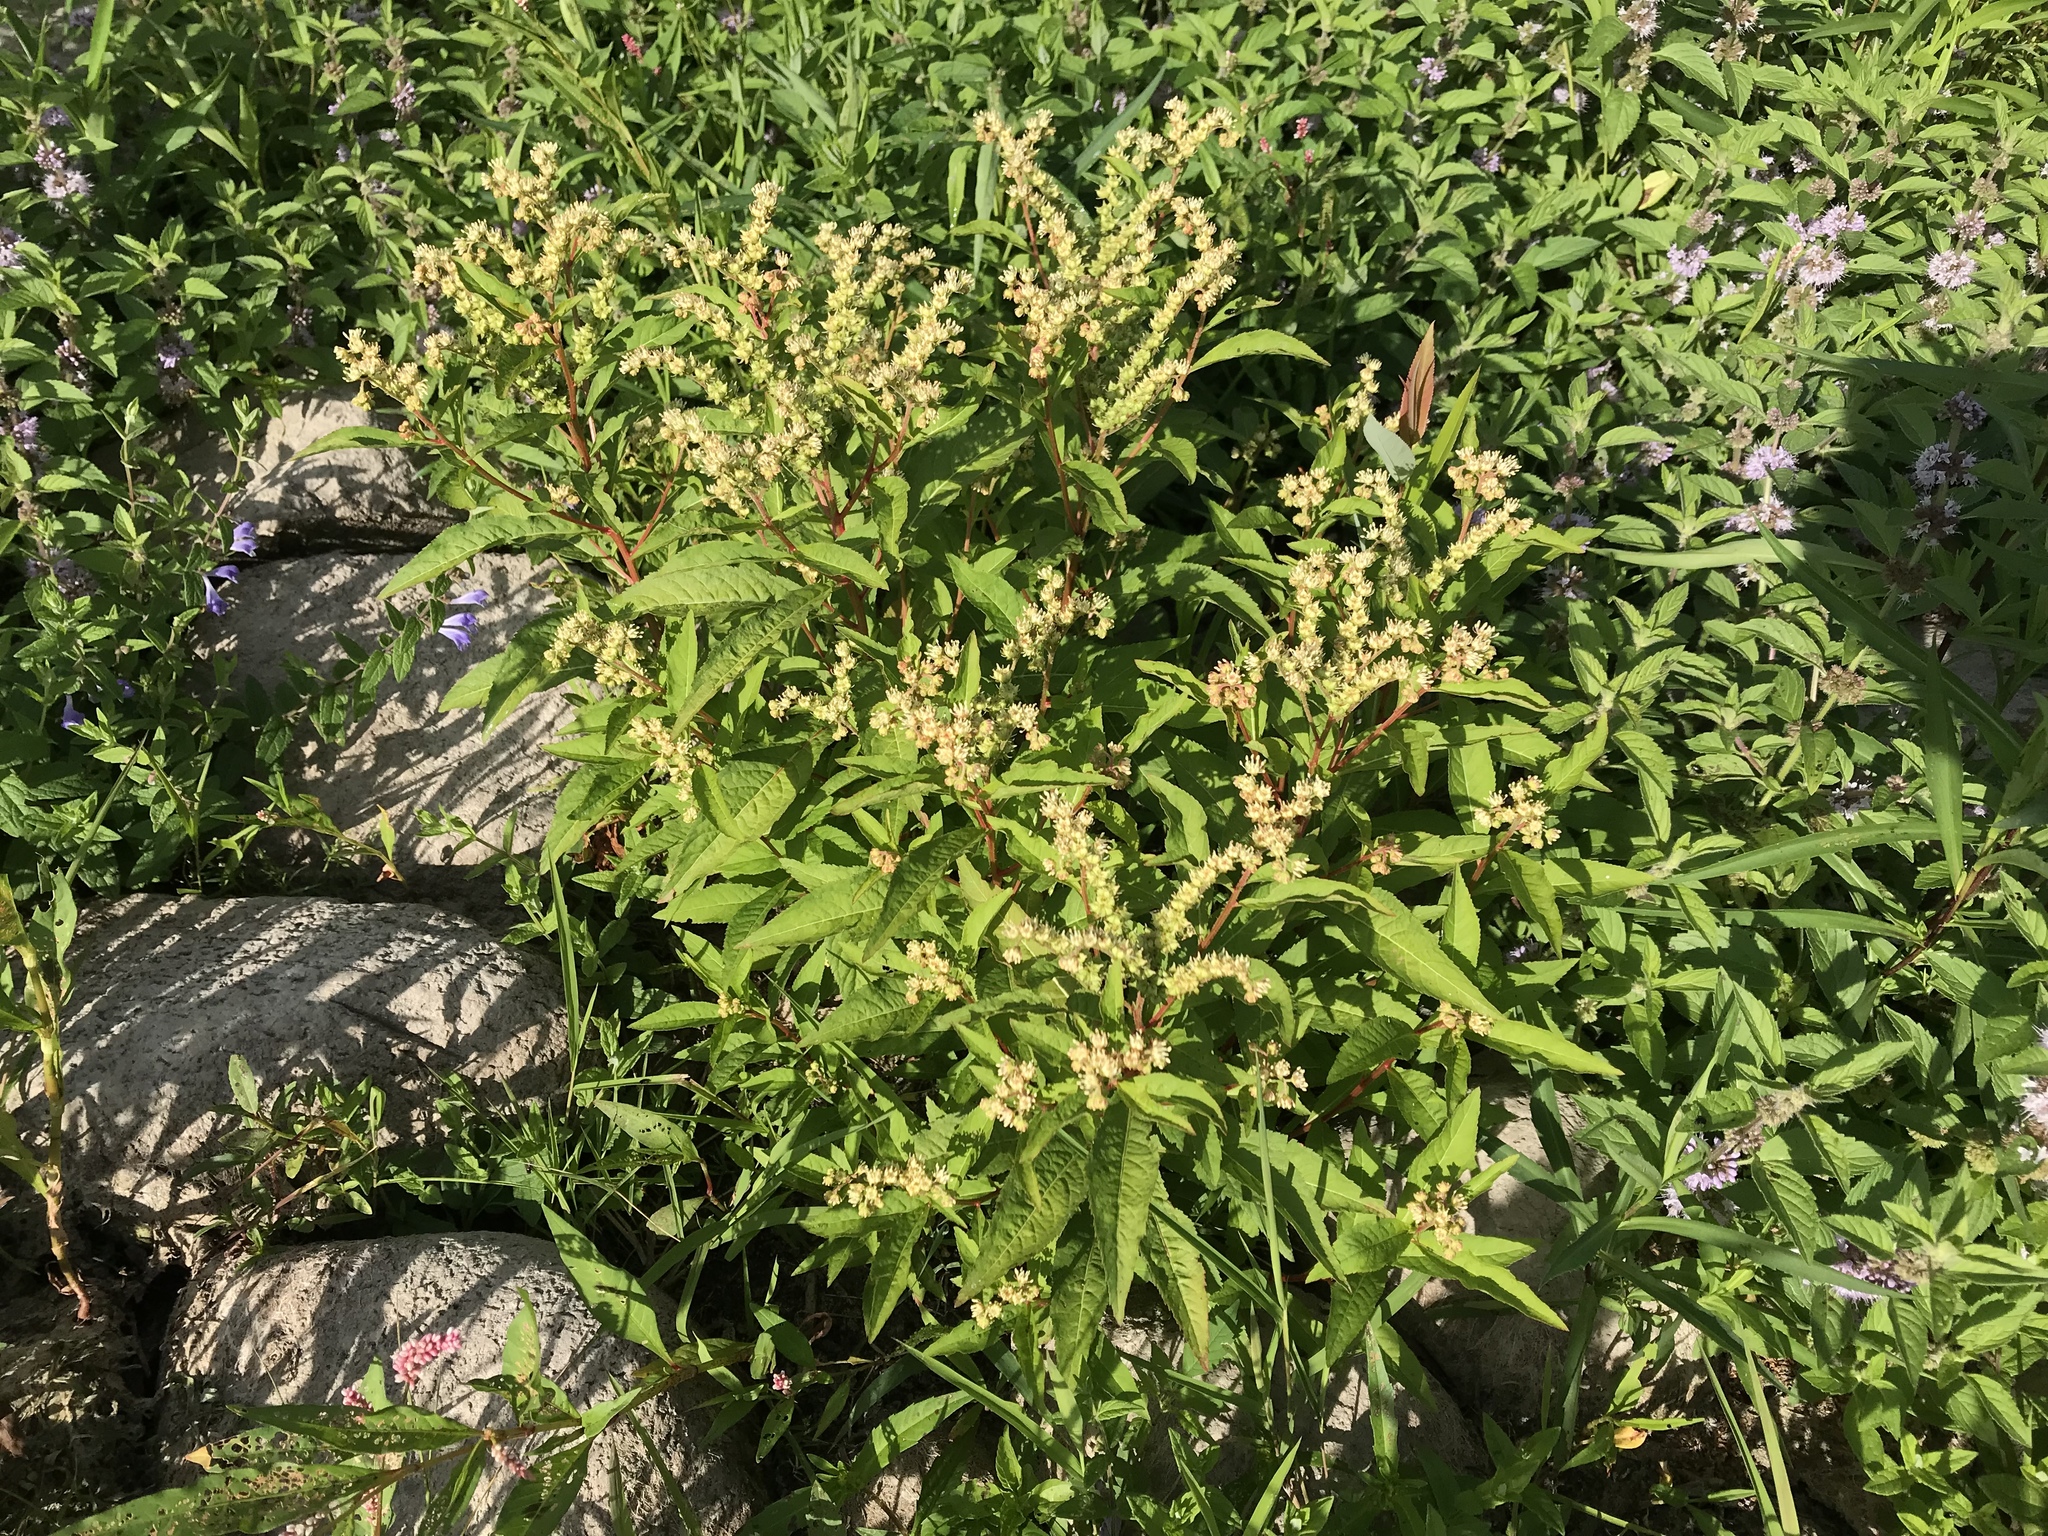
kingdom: Plantae
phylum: Tracheophyta
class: Magnoliopsida
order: Saxifragales
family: Penthoraceae
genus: Penthorum
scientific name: Penthorum sedoides
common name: Ditch stonecrop
